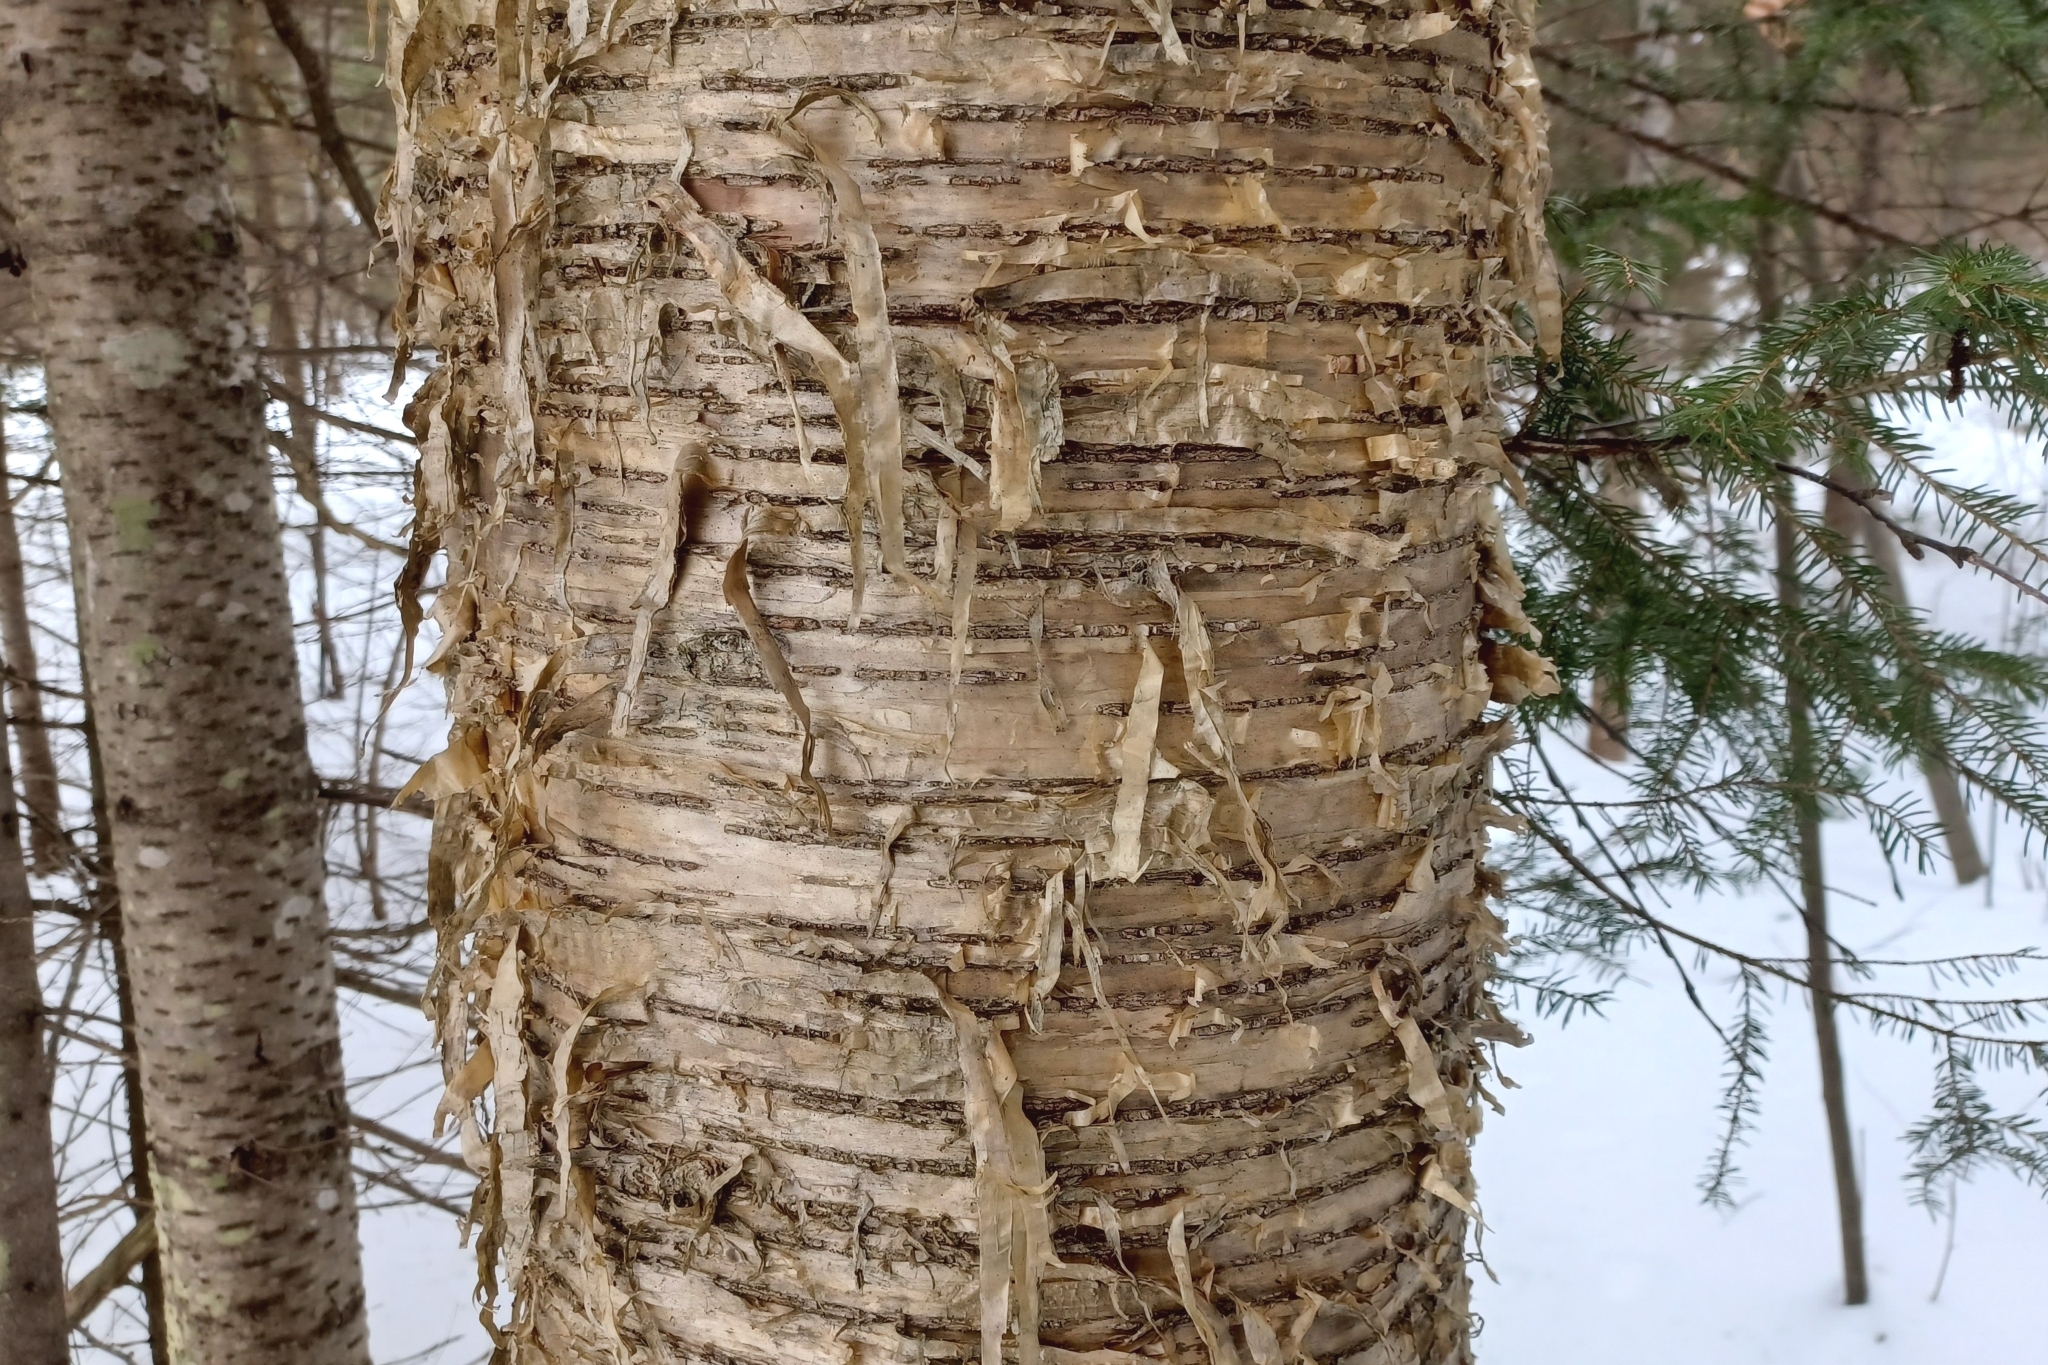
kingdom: Plantae
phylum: Tracheophyta
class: Magnoliopsida
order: Fagales
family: Betulaceae
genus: Betula
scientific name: Betula alleghaniensis
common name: Yellow birch
